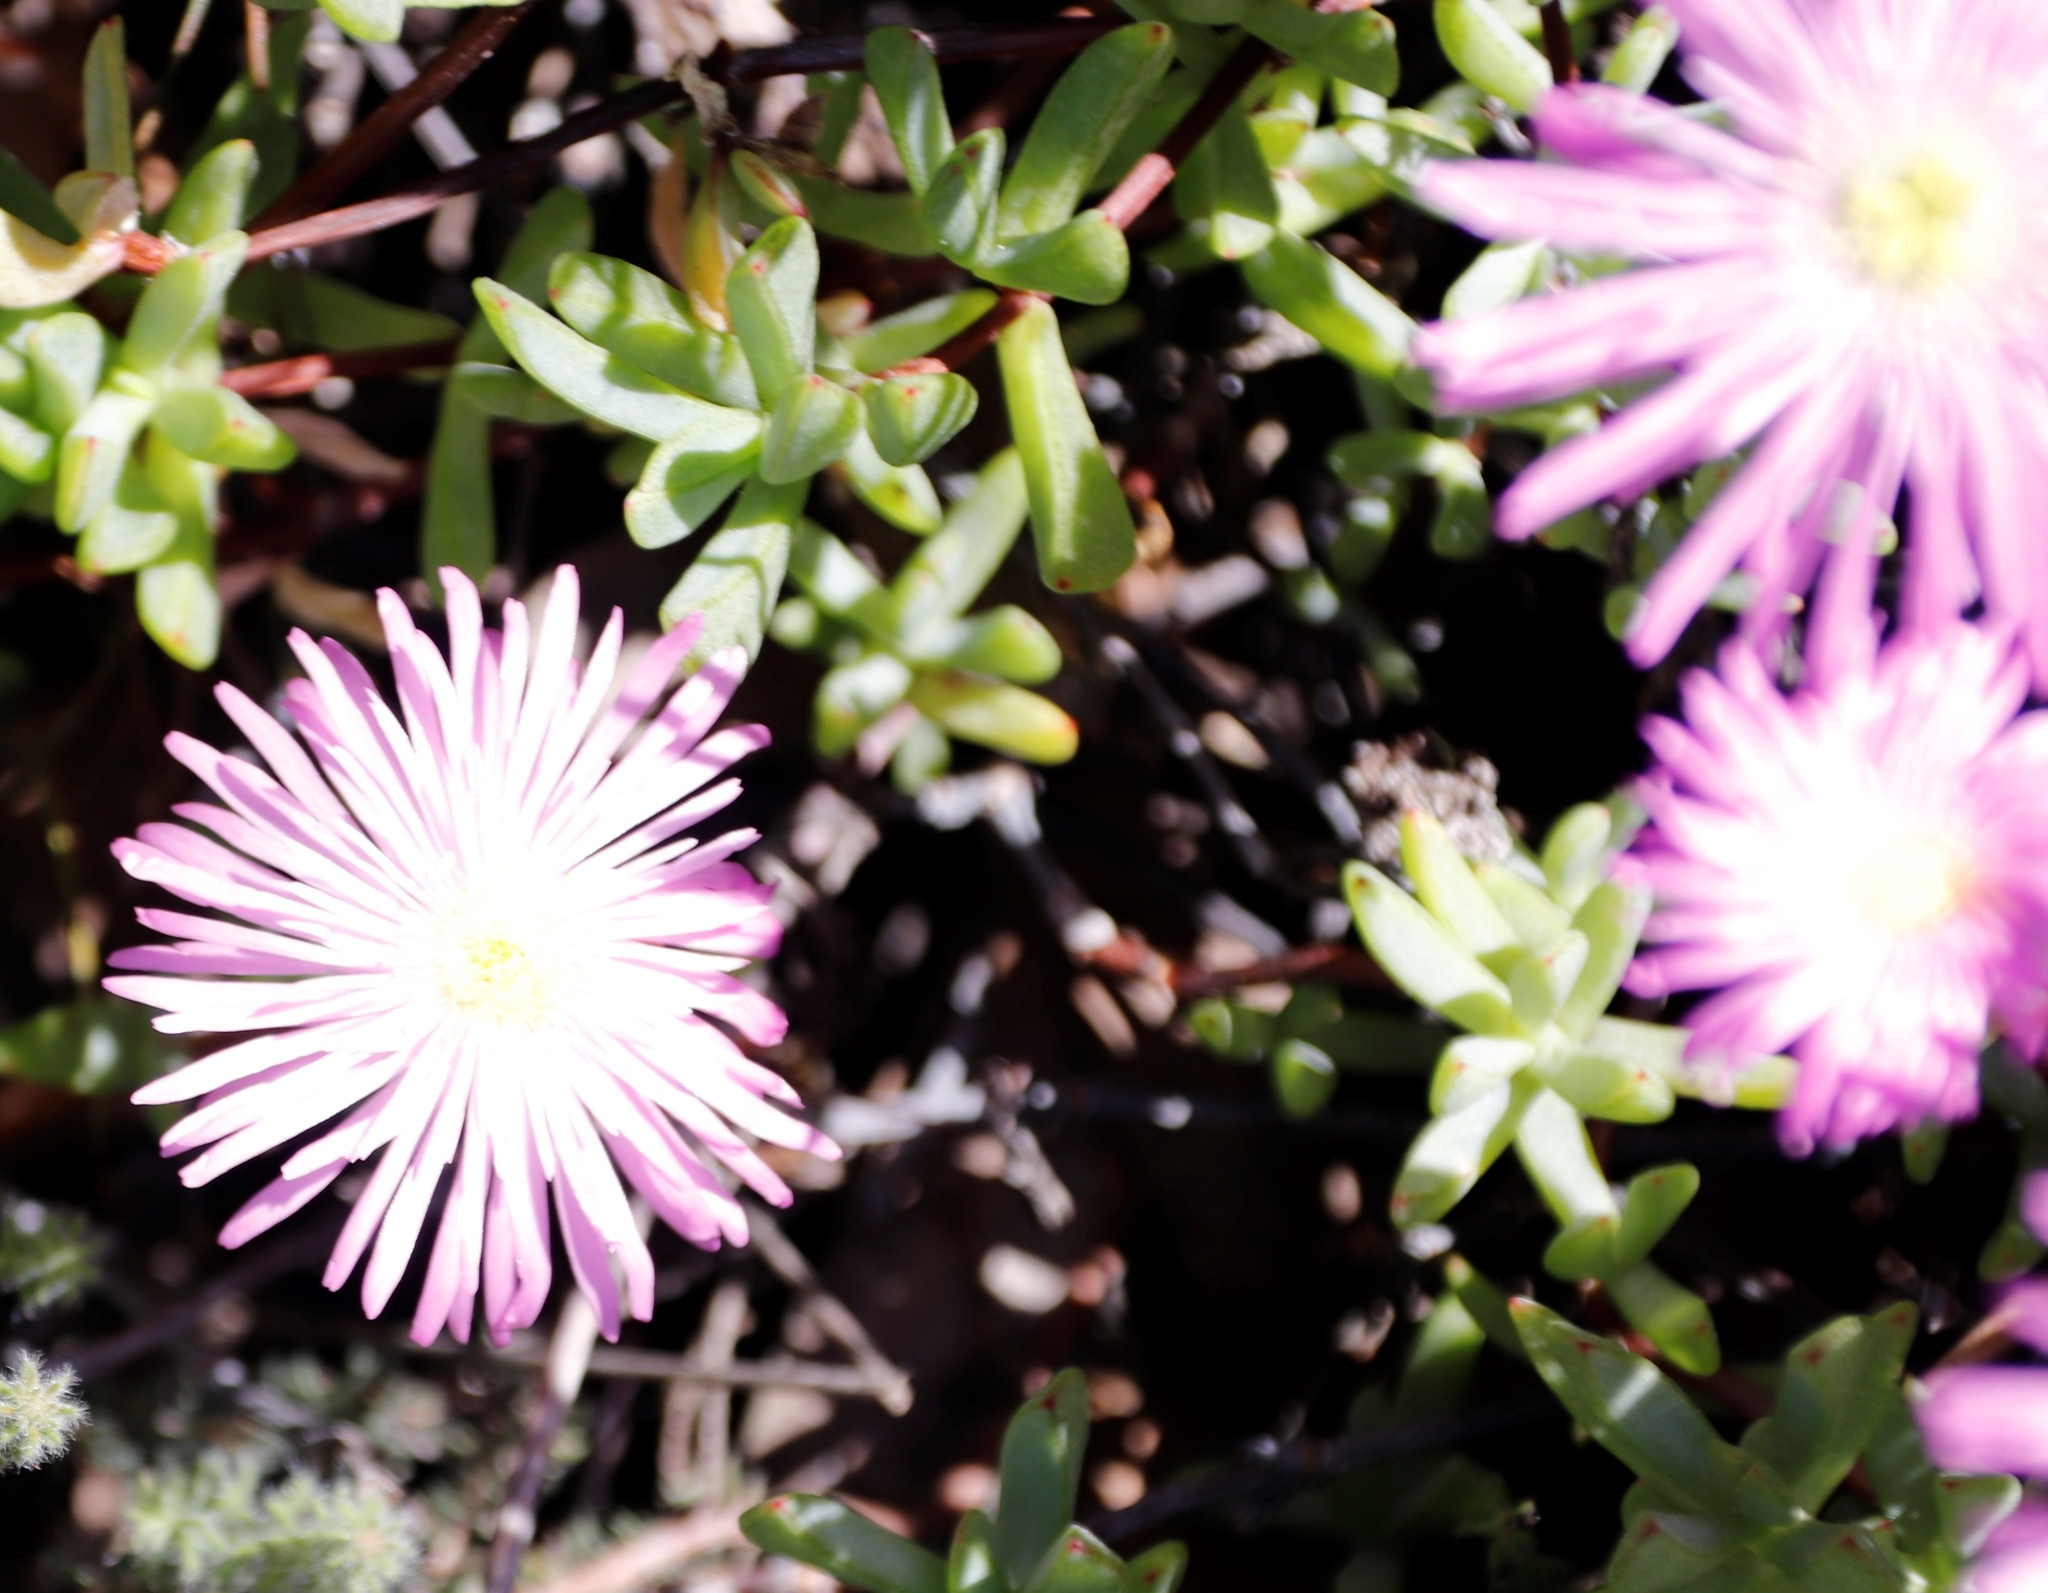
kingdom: Plantae
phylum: Tracheophyta
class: Magnoliopsida
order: Caryophyllales
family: Aizoaceae
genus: Oscularia
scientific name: Oscularia falciformis
